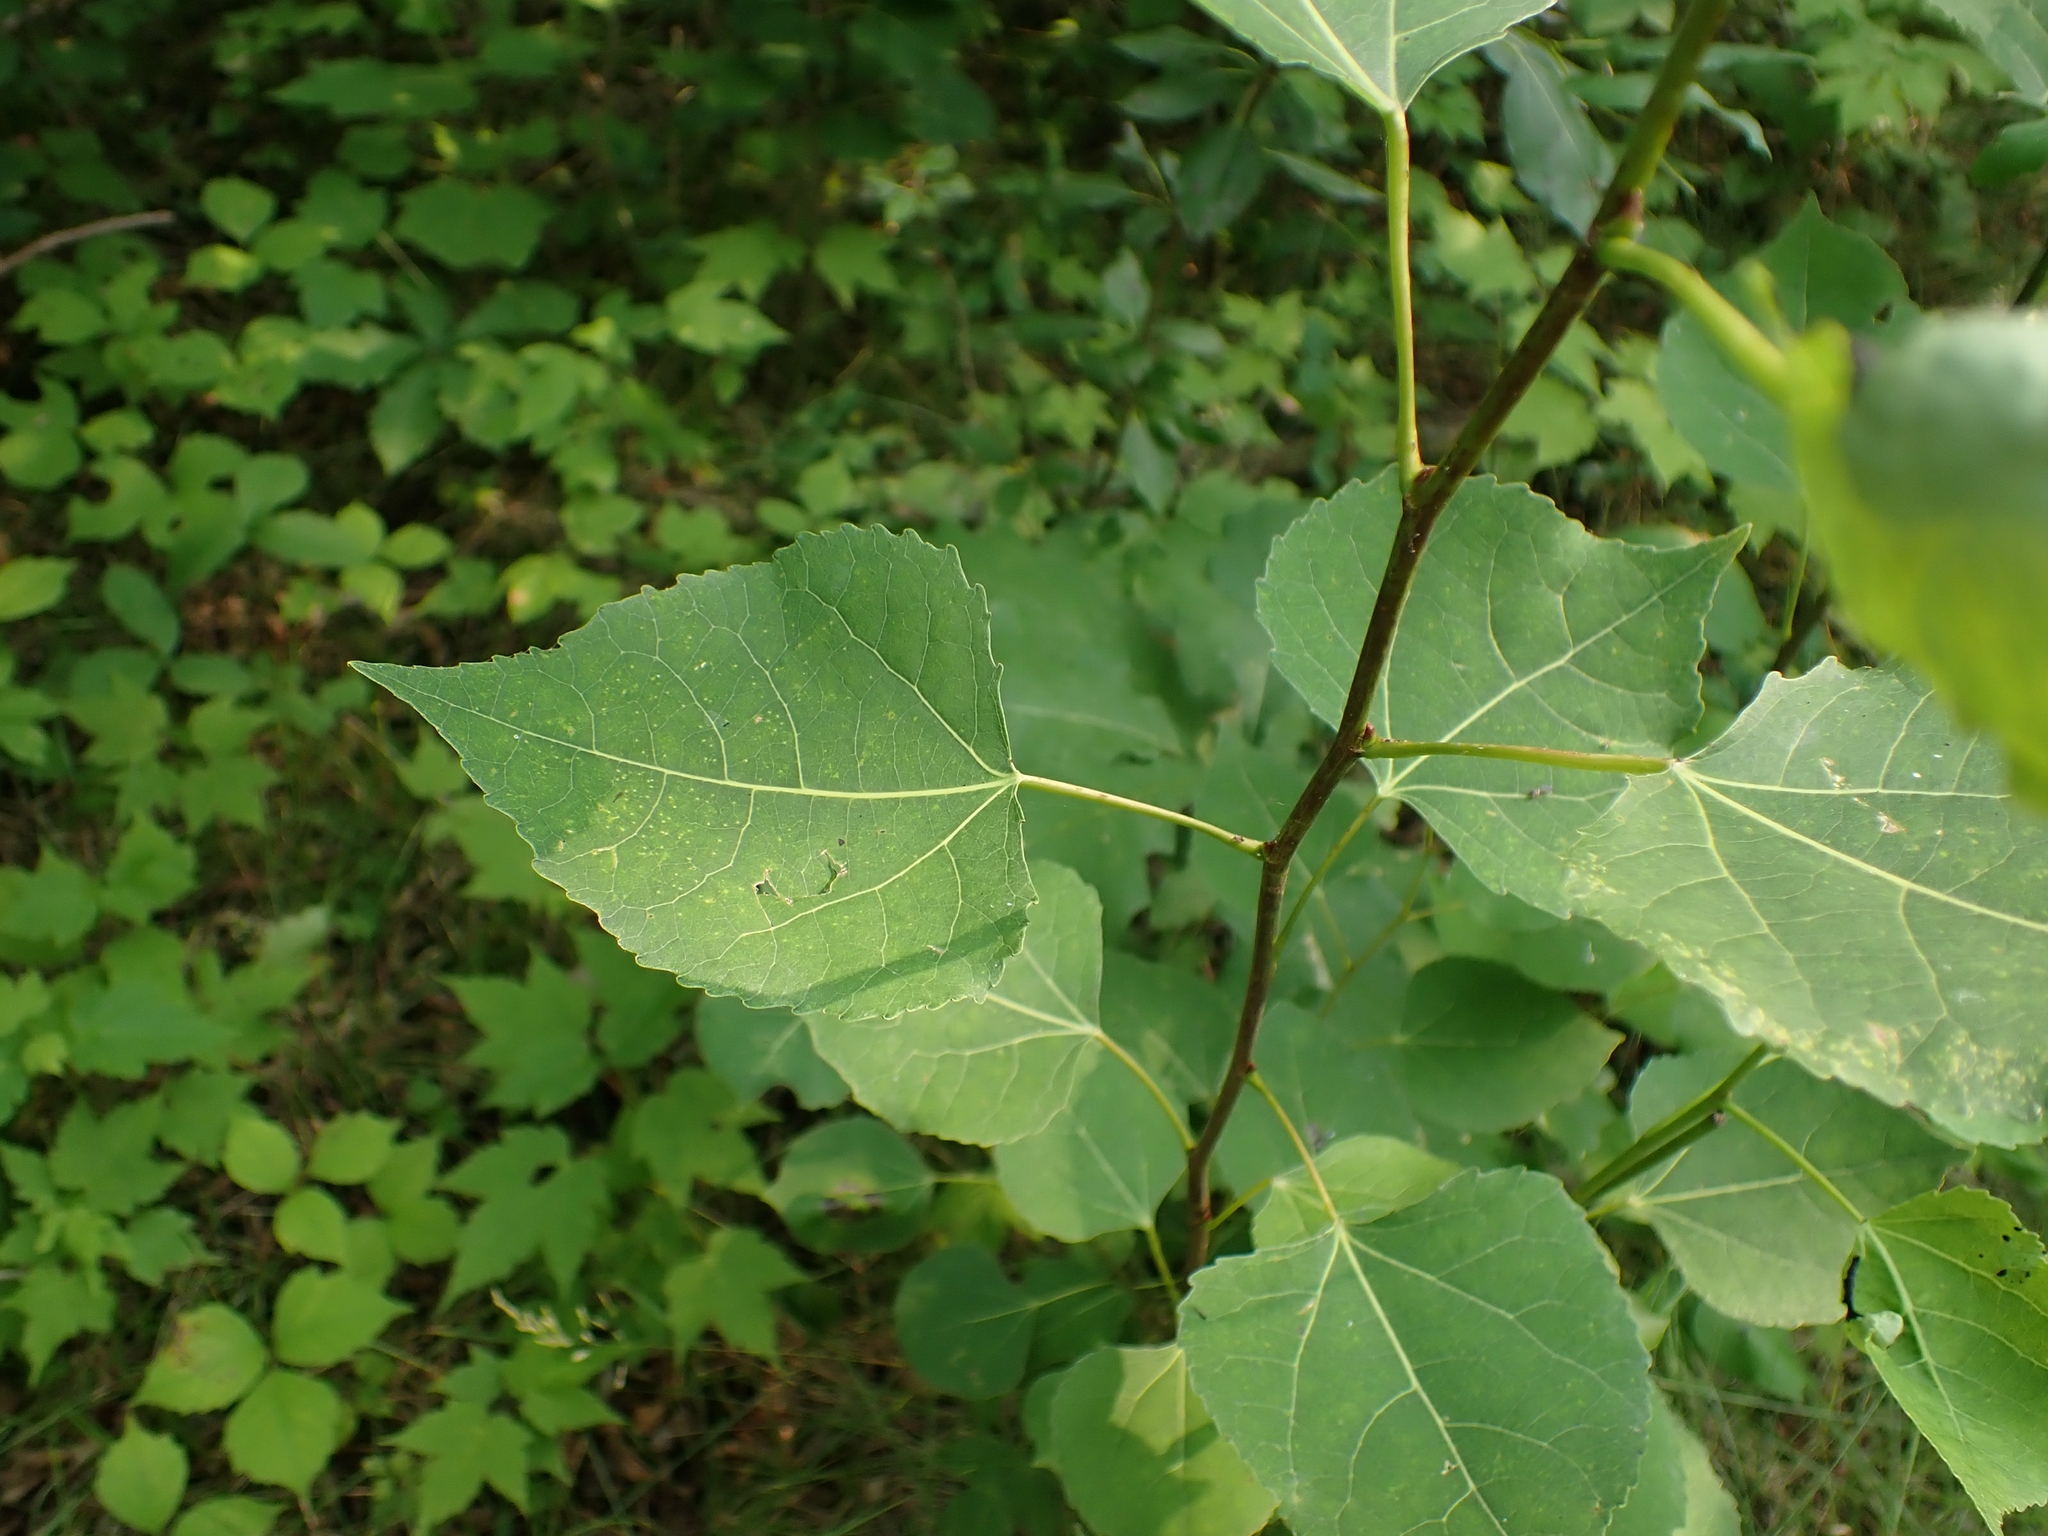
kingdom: Plantae
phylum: Tracheophyta
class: Magnoliopsida
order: Malpighiales
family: Salicaceae
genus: Populus
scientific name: Populus deltoides
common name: Eastern cottonwood
